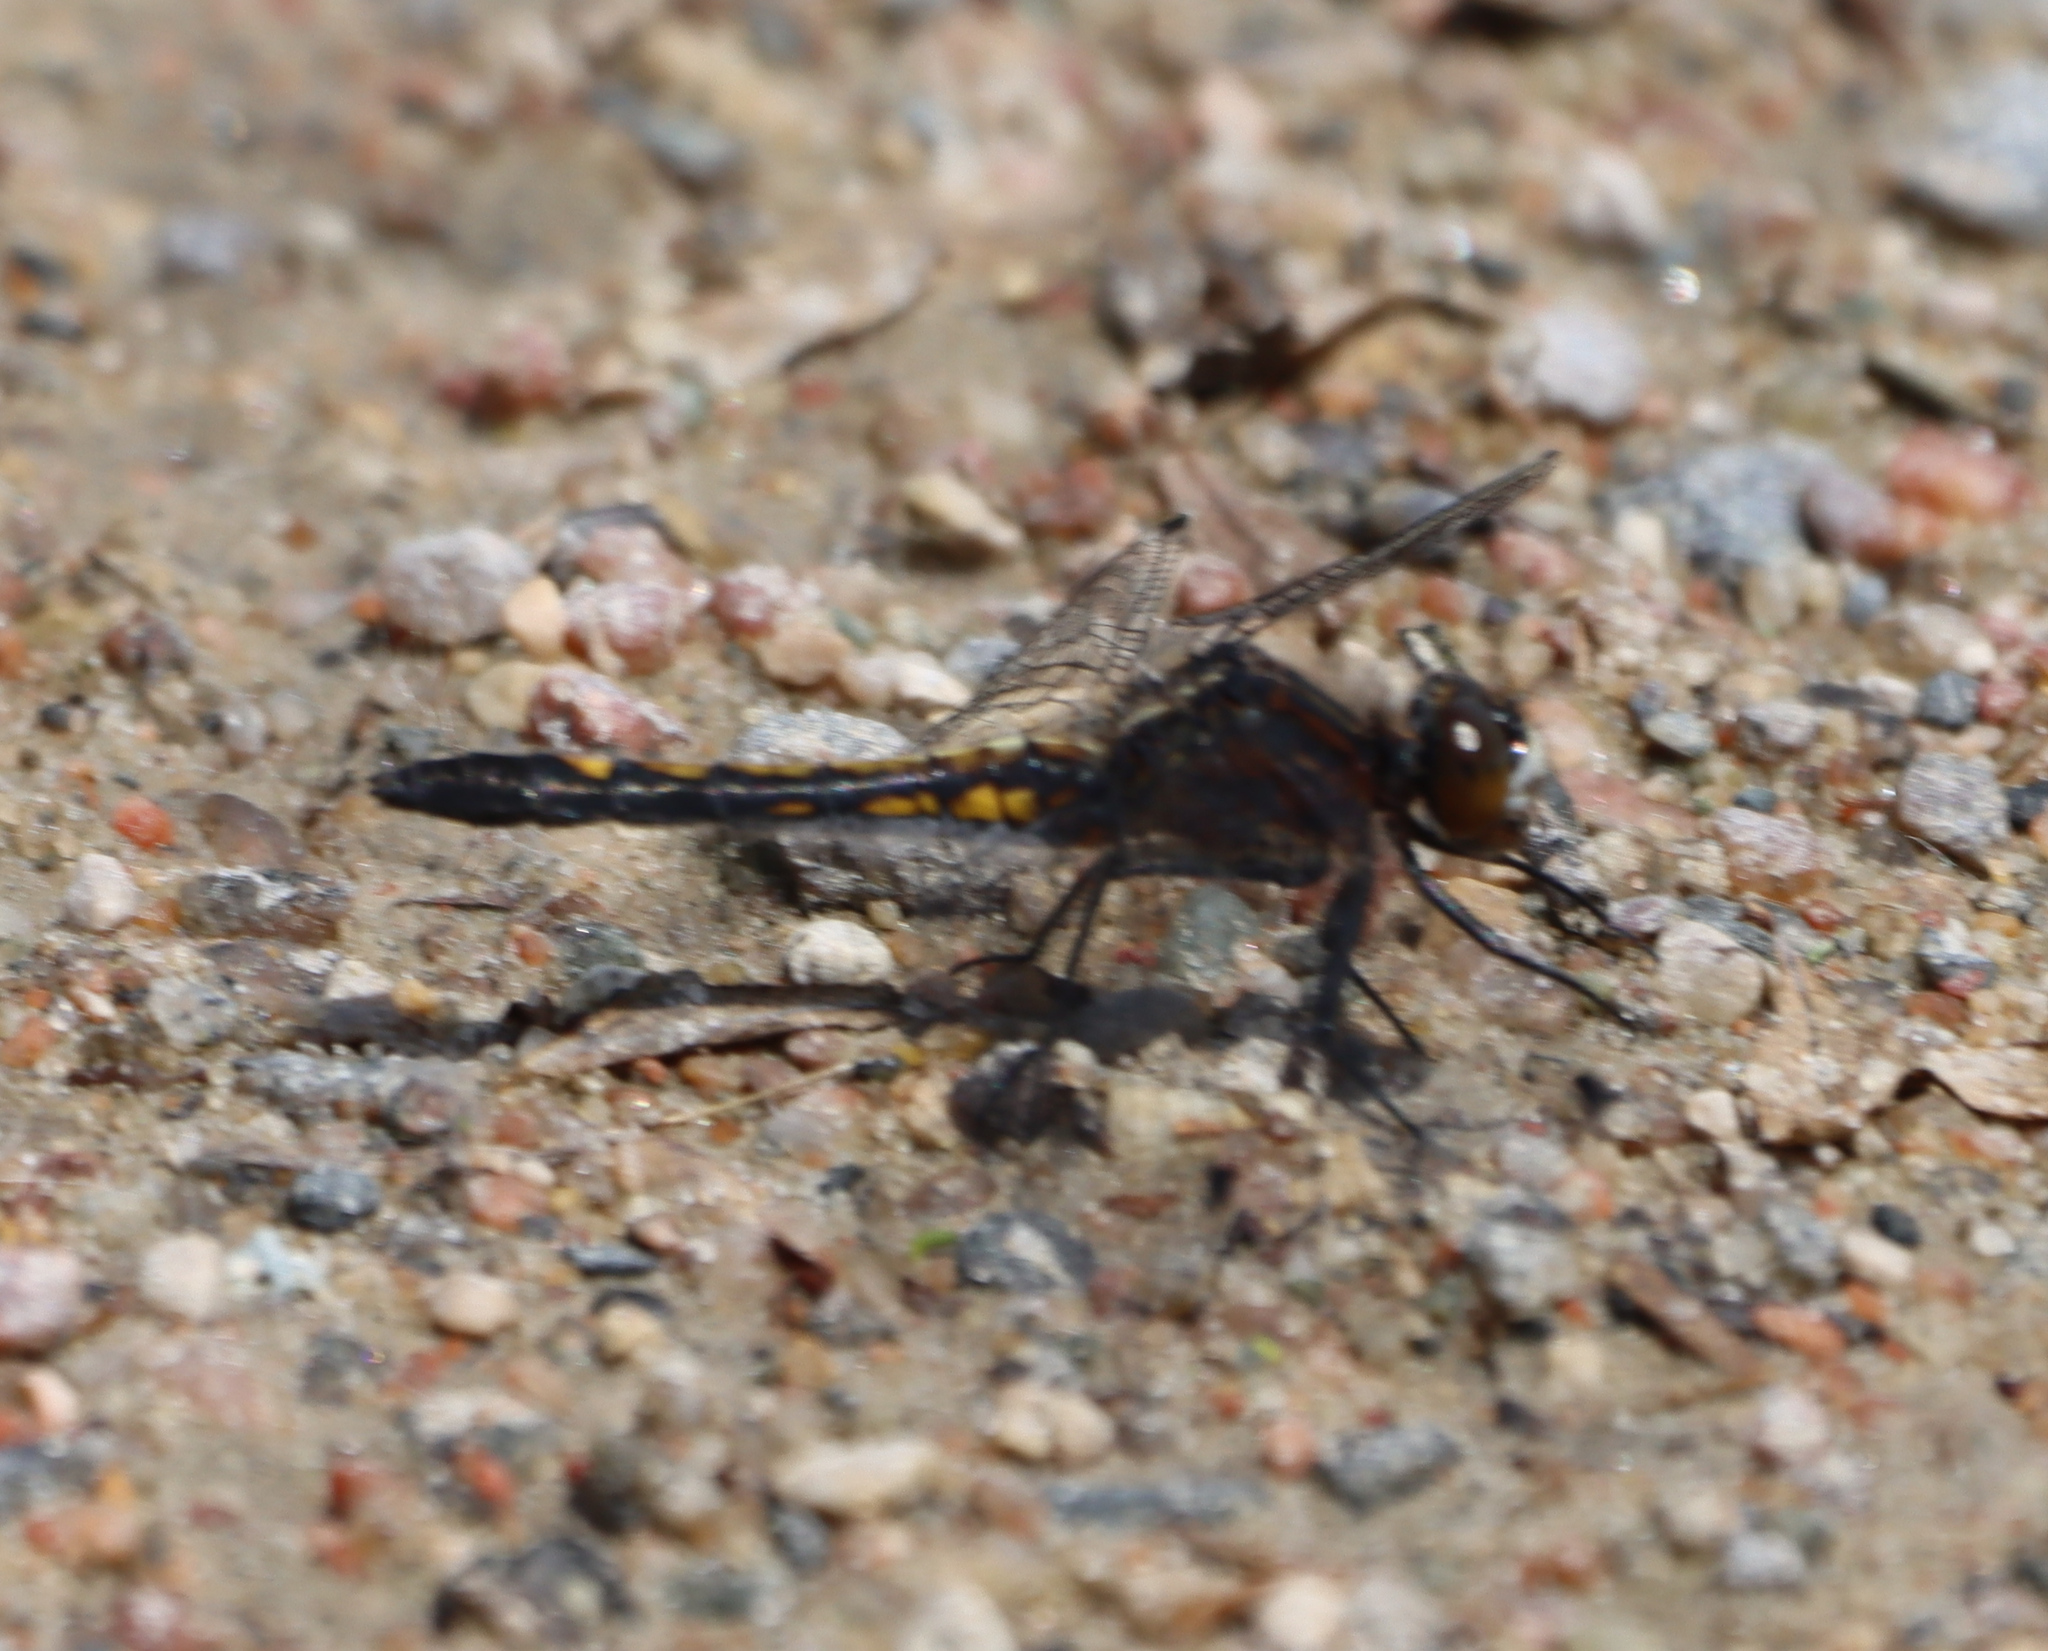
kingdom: Animalia
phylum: Arthropoda
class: Insecta
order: Odonata
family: Libellulidae
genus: Leucorrhinia
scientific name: Leucorrhinia intacta
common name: Dot-tailed whiteface
